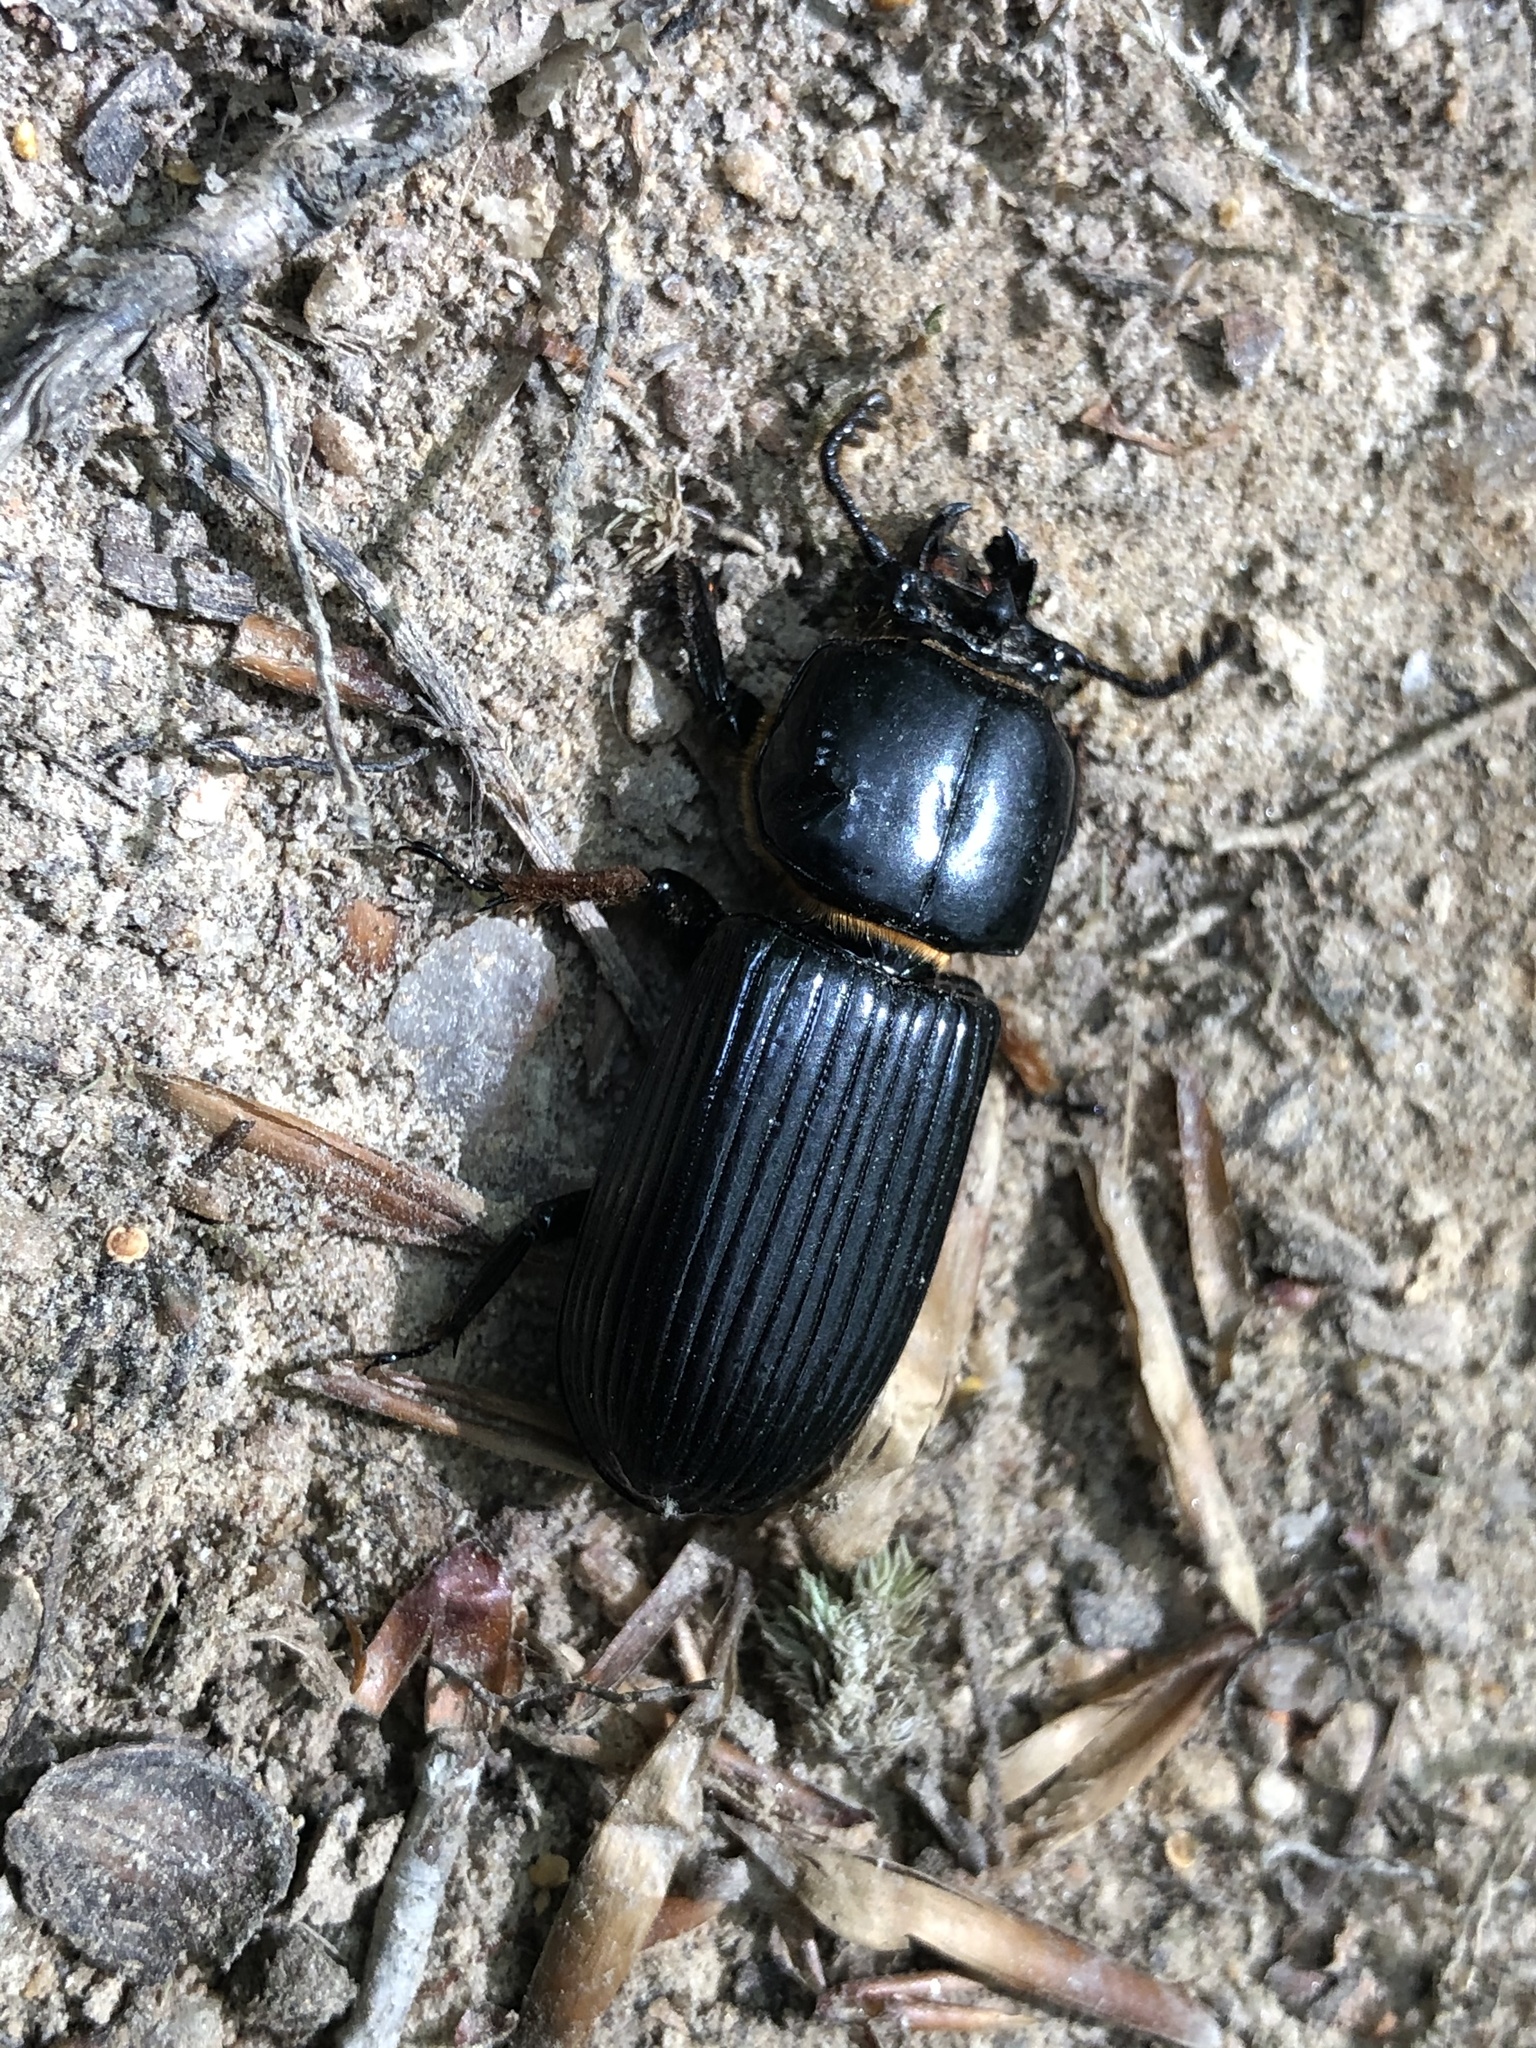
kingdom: Animalia
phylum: Arthropoda
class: Insecta
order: Coleoptera
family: Passalidae
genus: Odontotaenius
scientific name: Odontotaenius disjunctus
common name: Patent leather beetle
